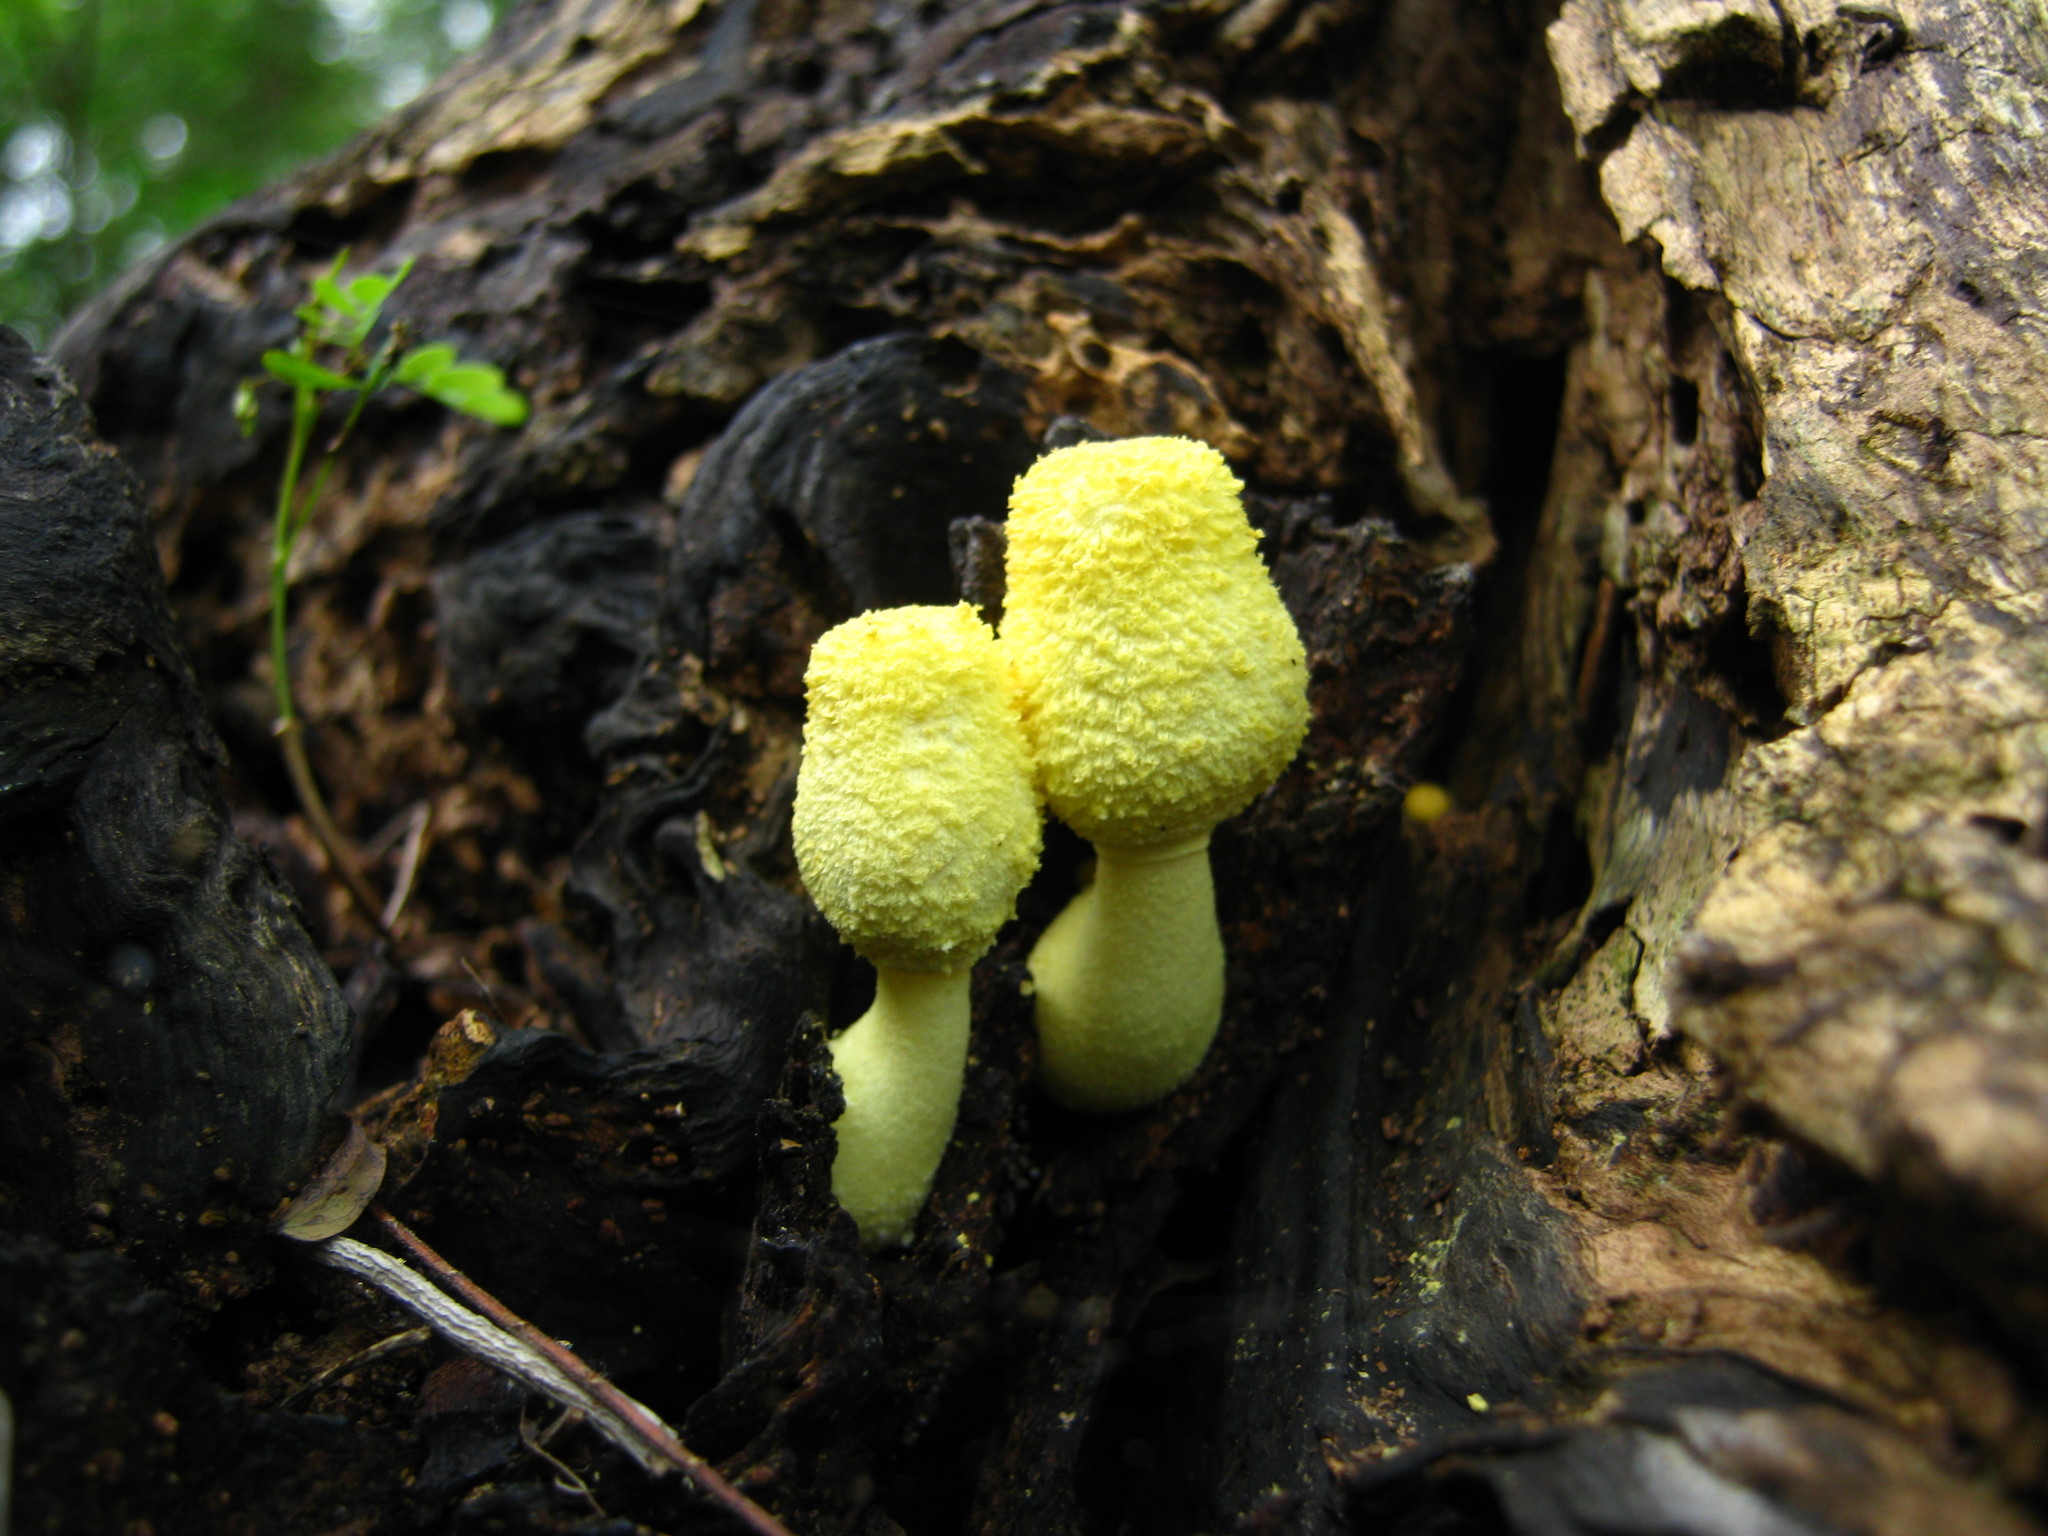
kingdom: Fungi
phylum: Basidiomycota
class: Agaricomycetes
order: Agaricales
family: Agaricaceae
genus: Leucocoprinus
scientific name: Leucocoprinus birnbaumii
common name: Plantpot dapperling
